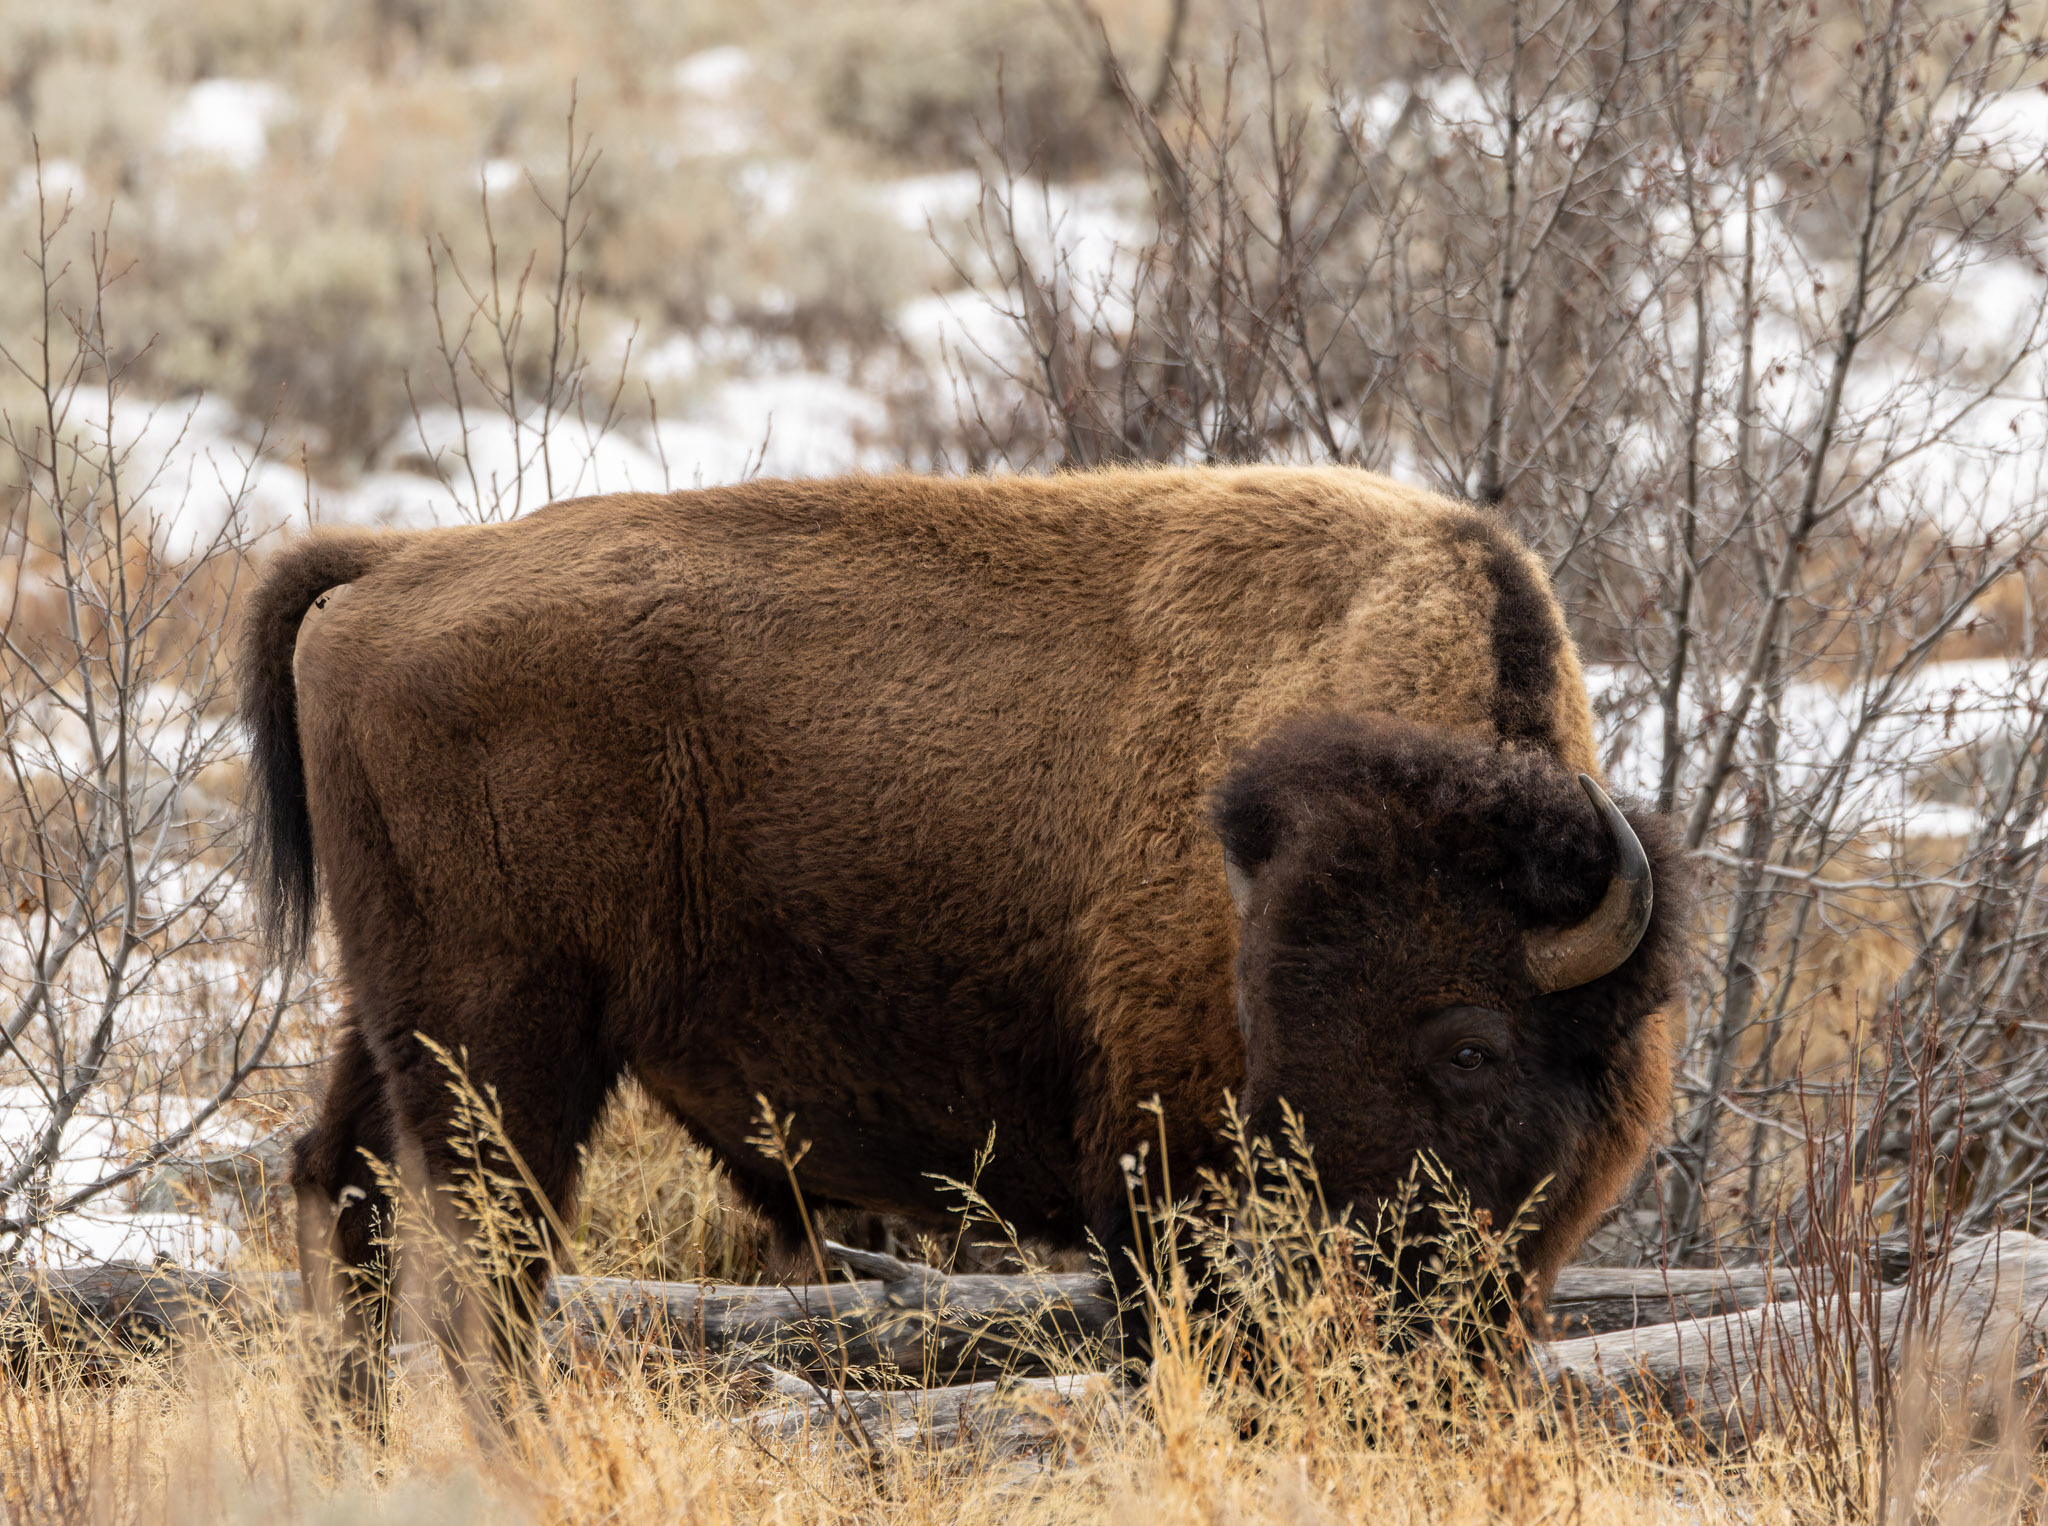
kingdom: Animalia
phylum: Chordata
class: Mammalia
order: Artiodactyla
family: Bovidae
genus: Bison
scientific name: Bison bison
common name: American bison
